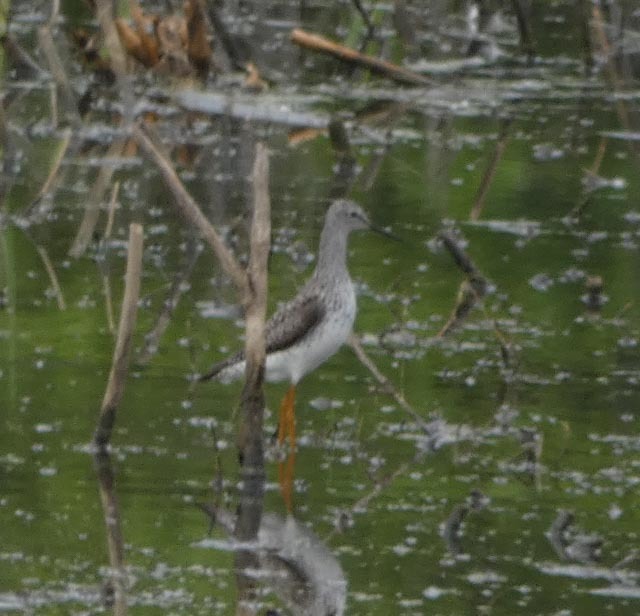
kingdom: Animalia
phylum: Chordata
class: Aves
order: Charadriiformes
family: Scolopacidae
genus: Tringa
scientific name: Tringa flavipes
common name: Lesser yellowlegs
